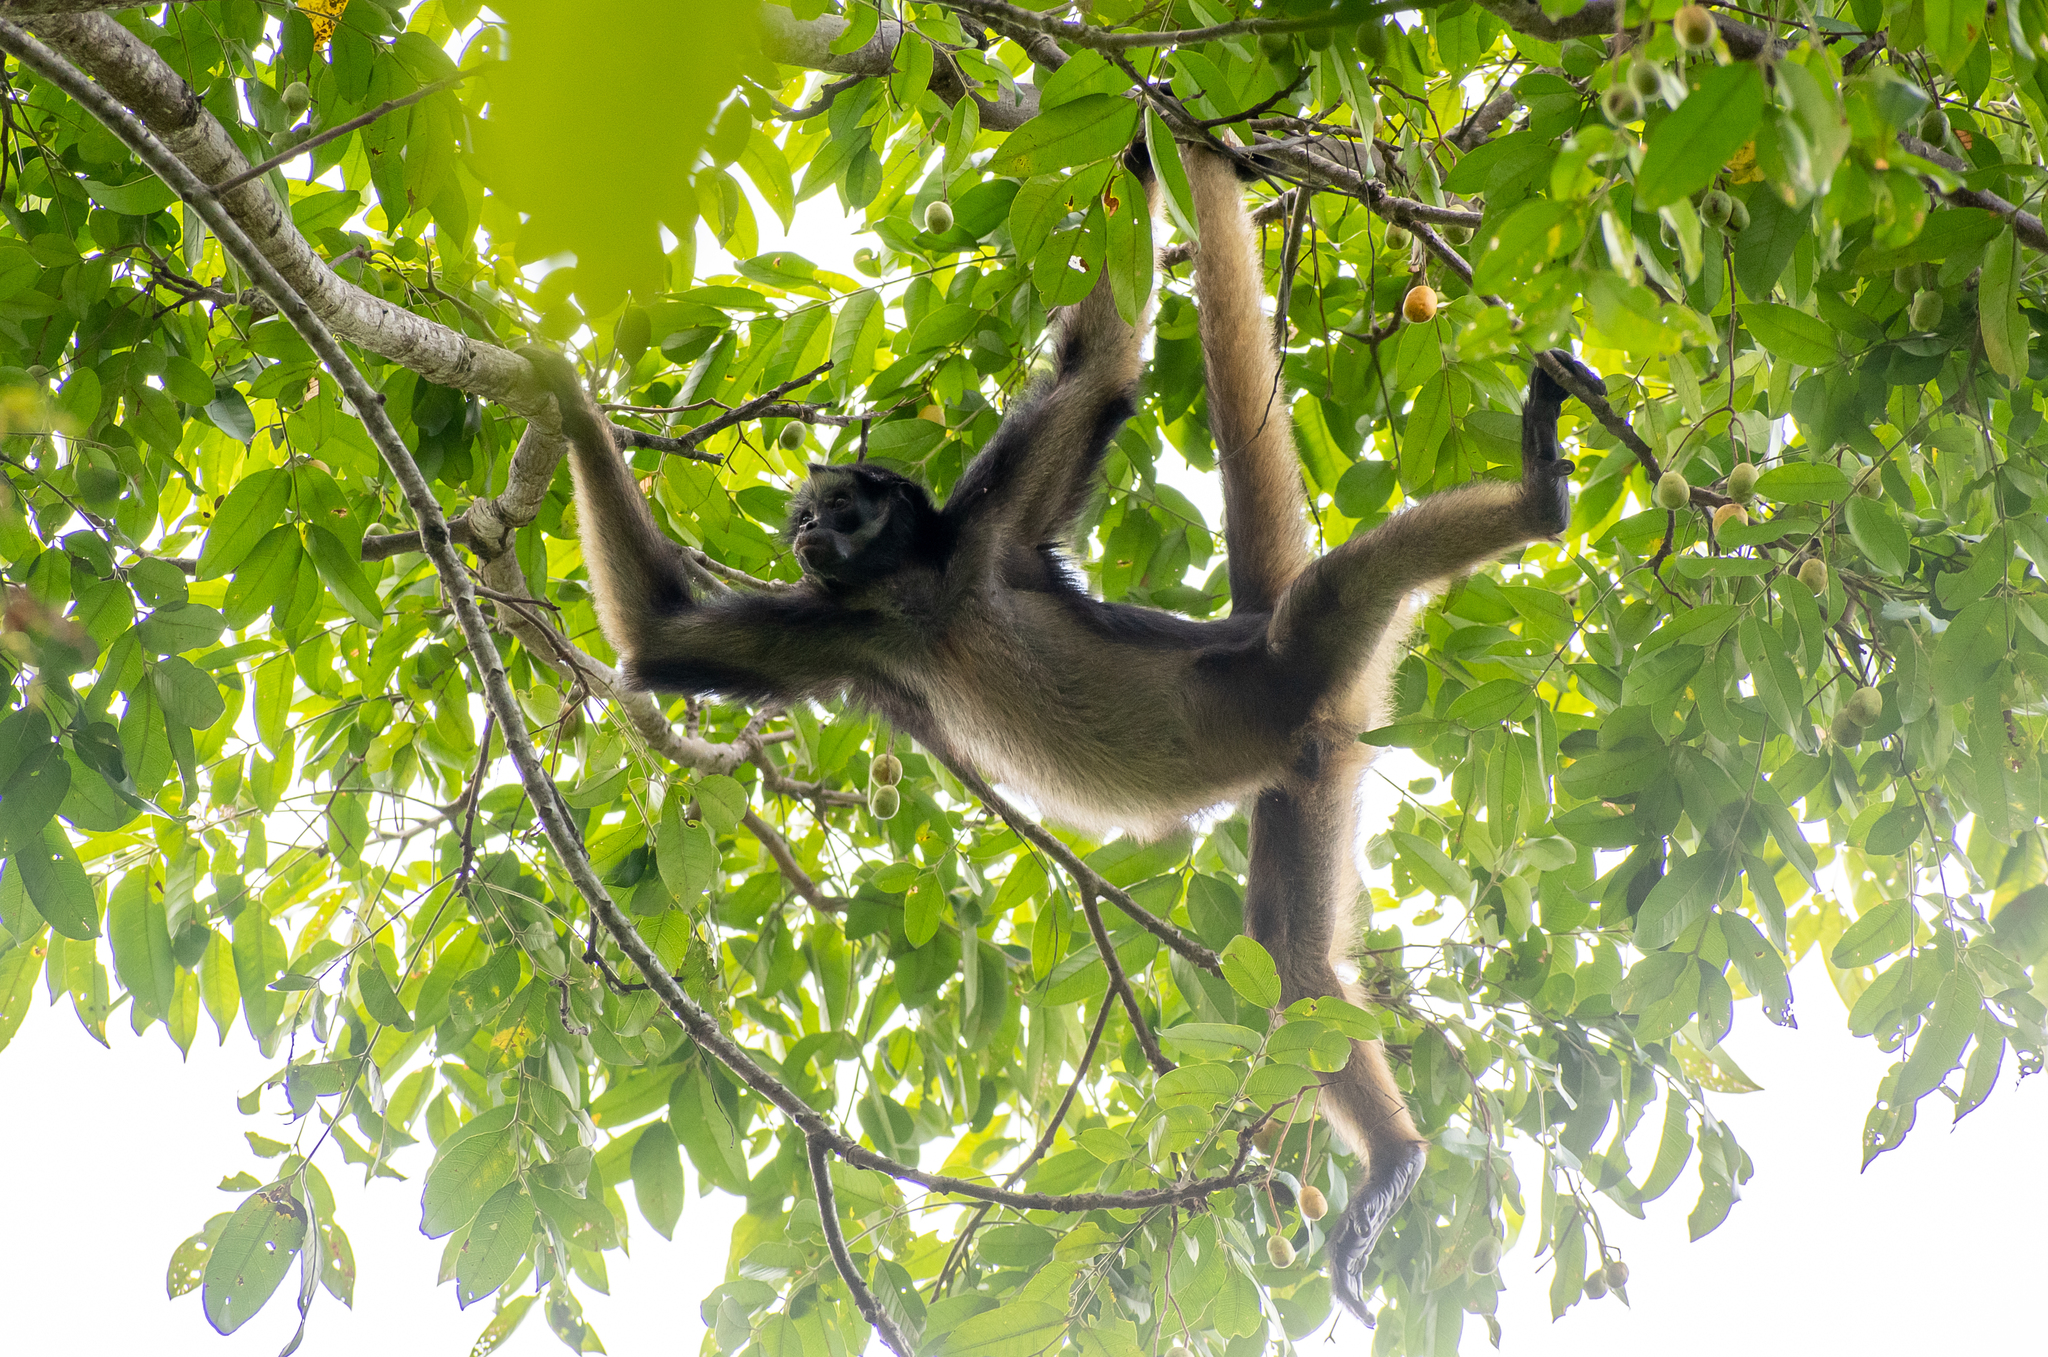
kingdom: Animalia
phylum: Chordata
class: Mammalia
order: Primates
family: Atelidae
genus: Ateles
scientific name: Ateles belzebuth
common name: White-fronted spider monkey
